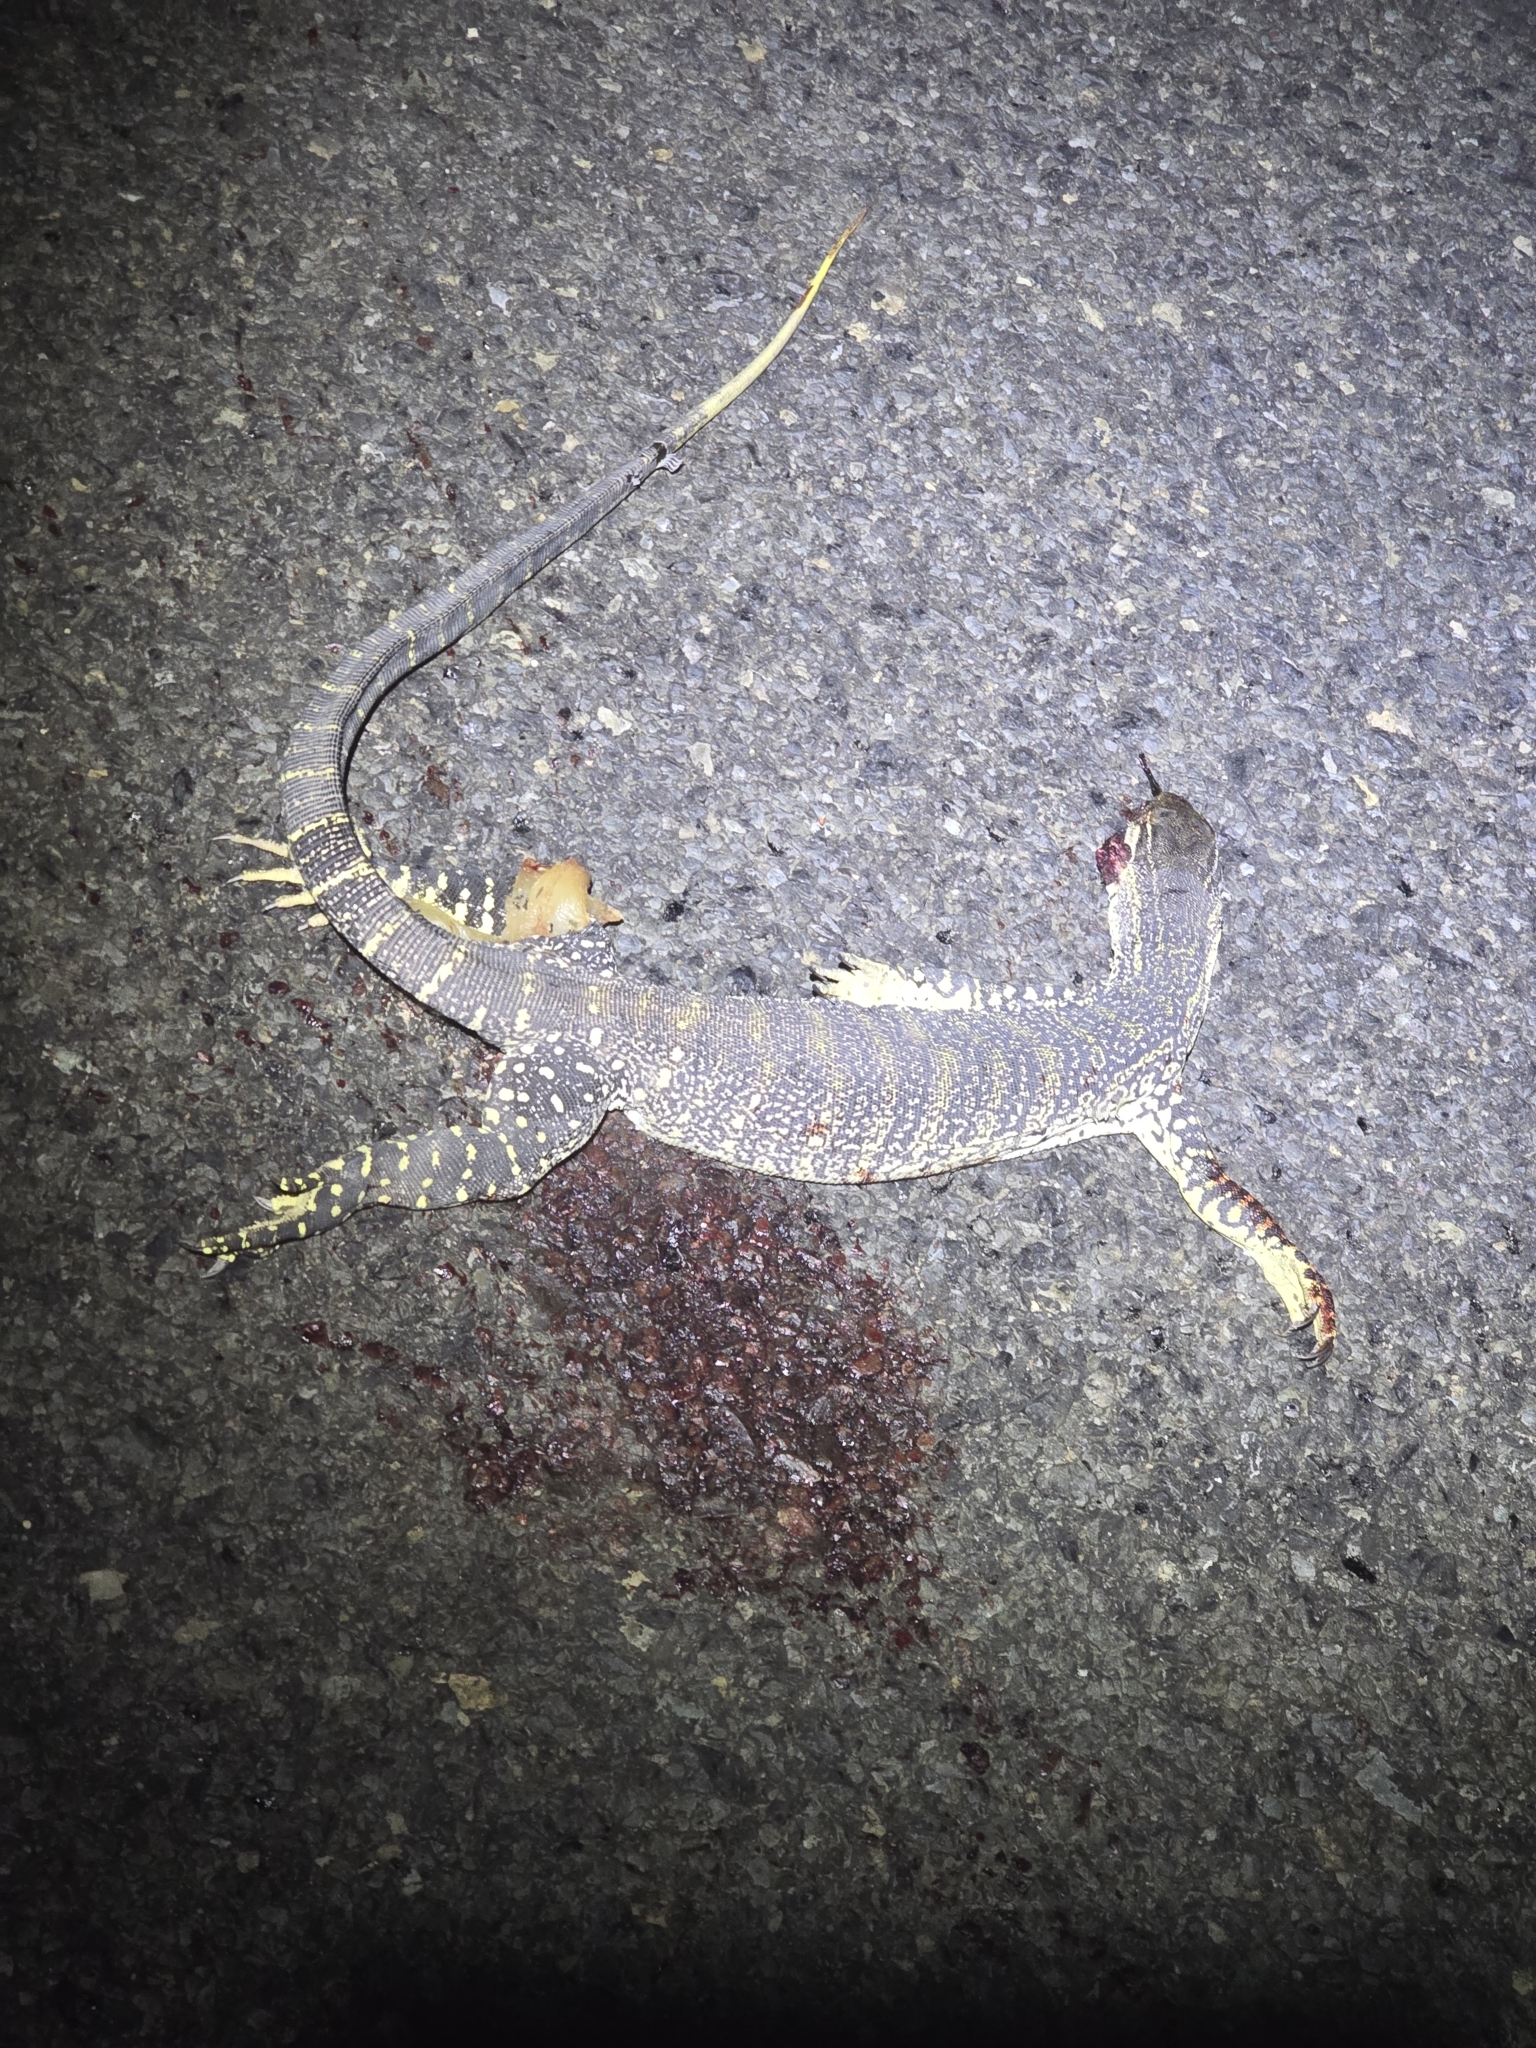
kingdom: Animalia
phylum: Chordata
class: Squamata
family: Varanidae
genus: Varanus
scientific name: Varanus gouldii
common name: Gould's goanna
